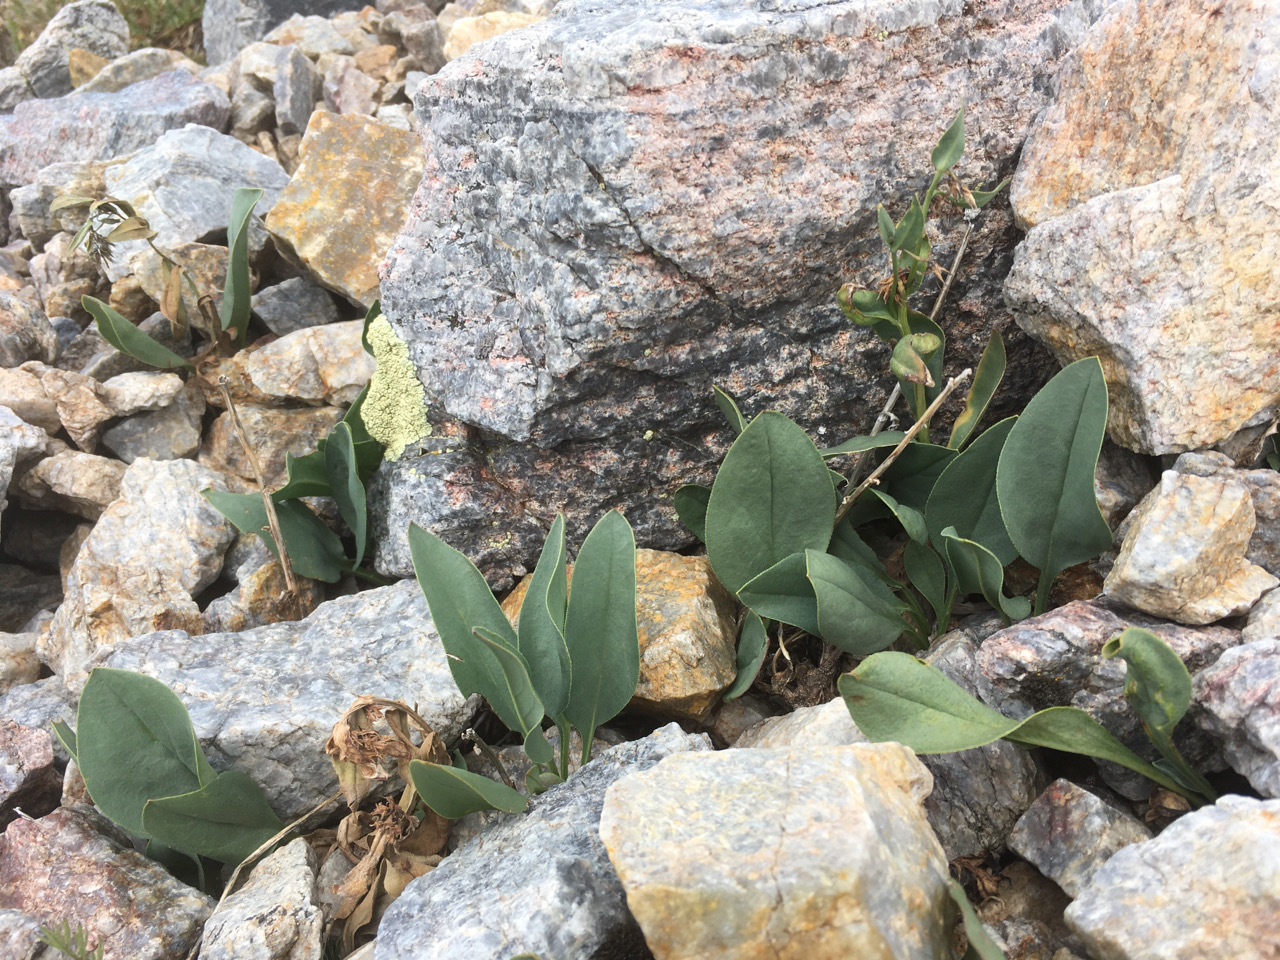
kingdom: Plantae
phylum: Tracheophyta
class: Magnoliopsida
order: Boraginales
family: Boraginaceae
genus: Mertensia
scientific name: Mertensia ovata
